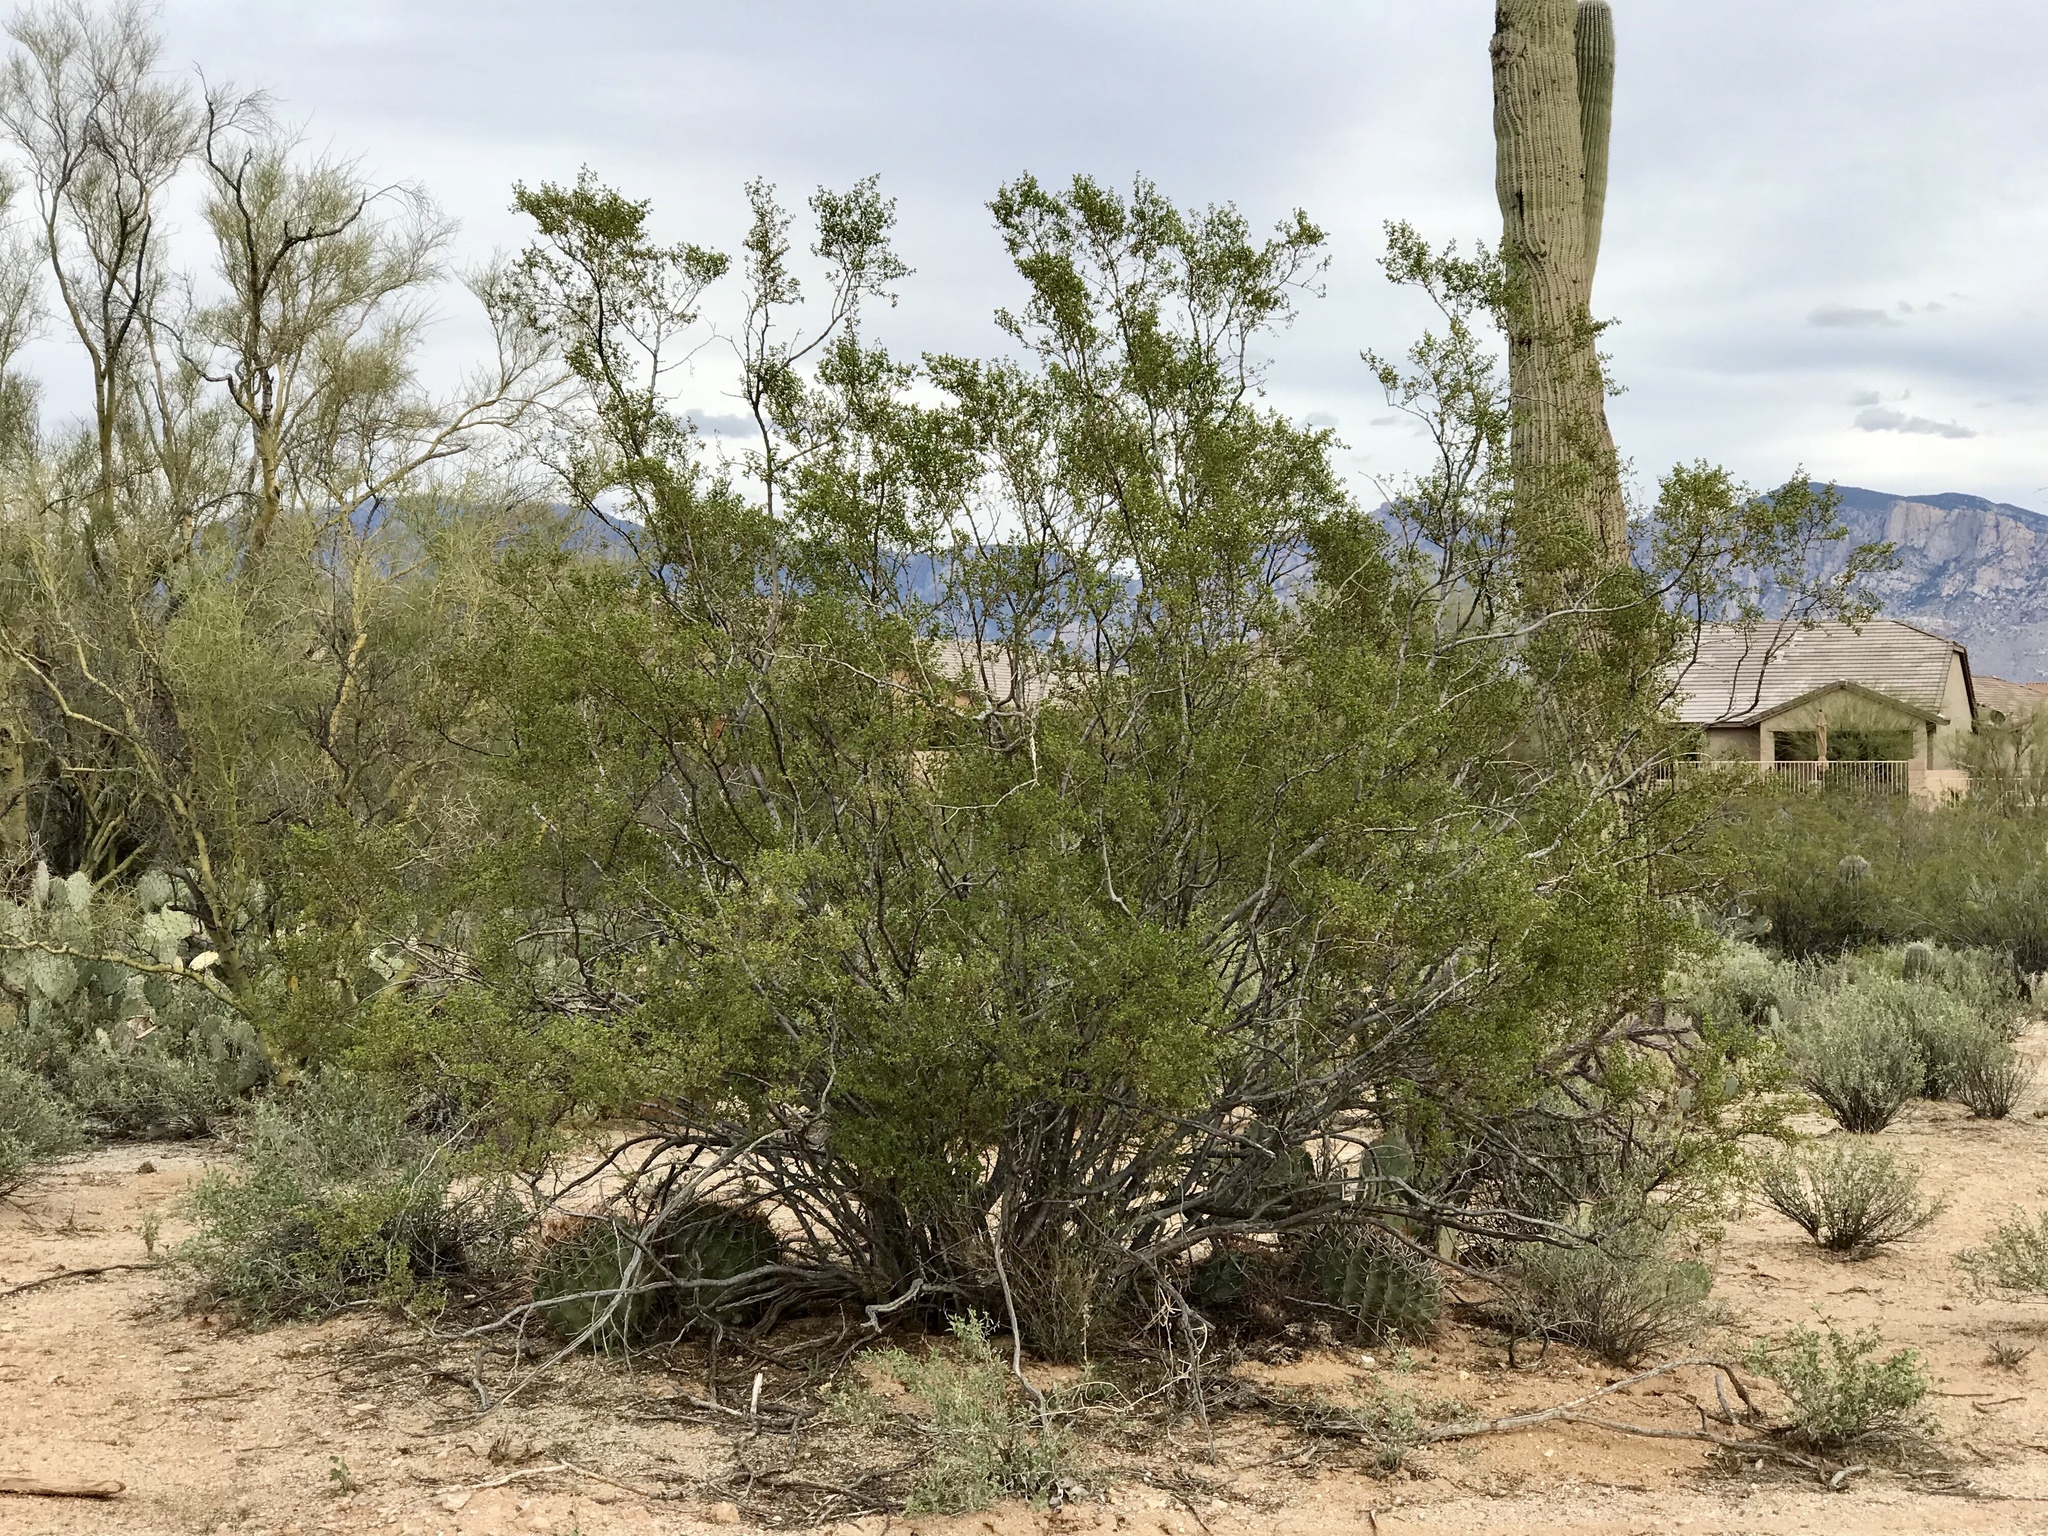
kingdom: Plantae
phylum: Tracheophyta
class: Magnoliopsida
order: Zygophyllales
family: Zygophyllaceae
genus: Larrea
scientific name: Larrea tridentata
